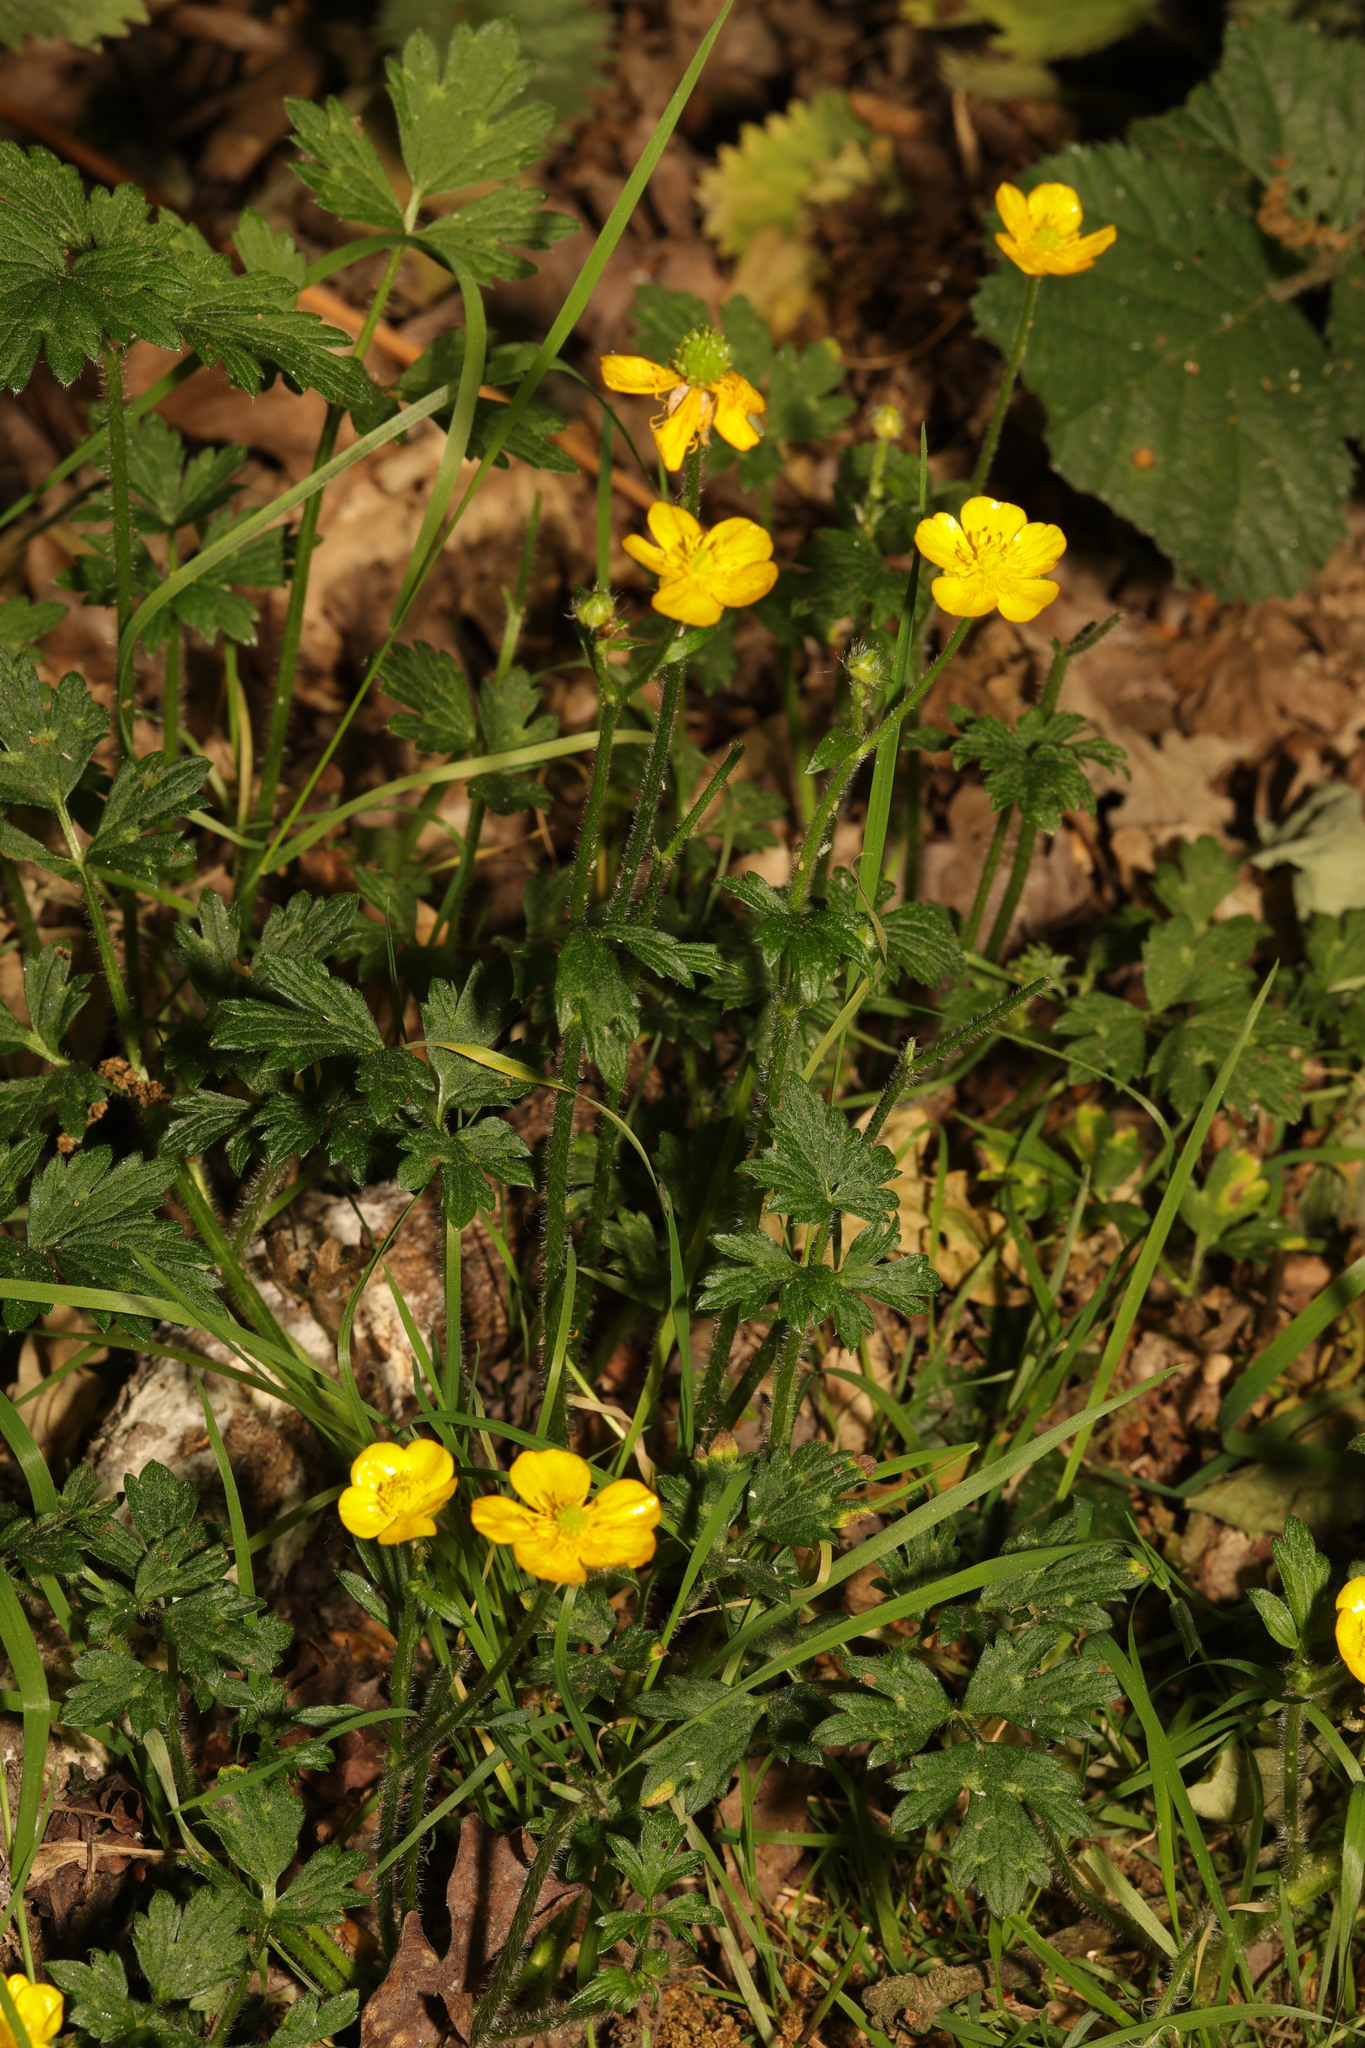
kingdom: Plantae
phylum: Tracheophyta
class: Magnoliopsida
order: Ranunculales
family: Ranunculaceae
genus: Ranunculus
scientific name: Ranunculus repens
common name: Creeping buttercup
